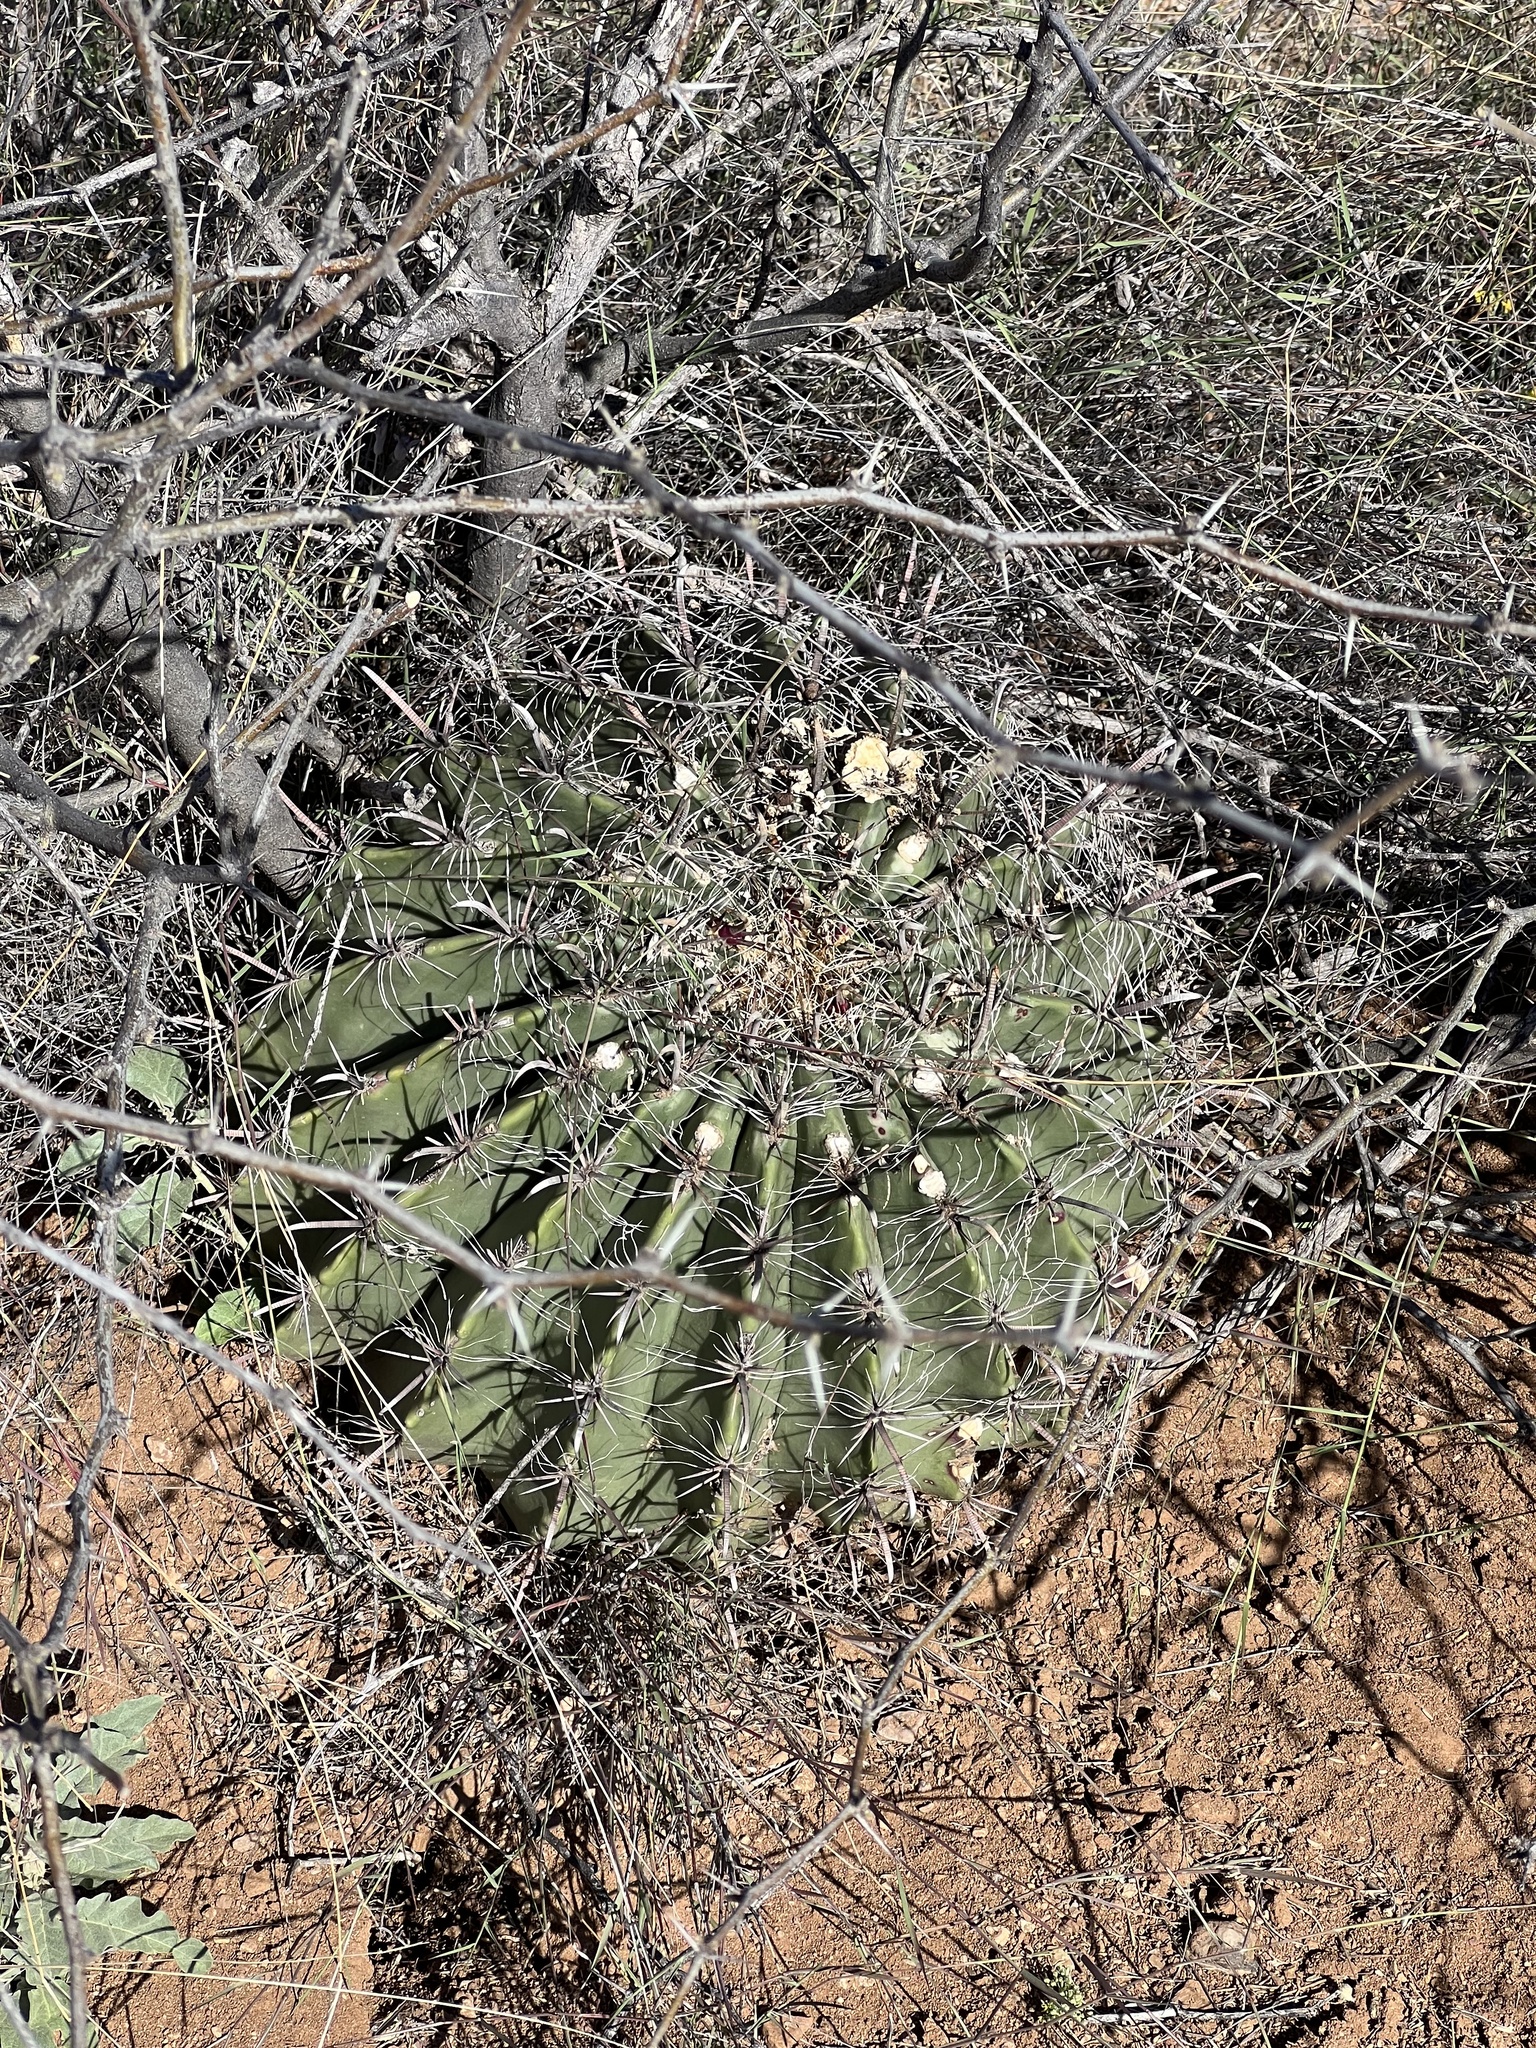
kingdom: Plantae
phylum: Tracheophyta
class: Magnoliopsida
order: Caryophyllales
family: Cactaceae
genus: Ferocactus
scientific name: Ferocactus wislizeni
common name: Candy barrel cactus
